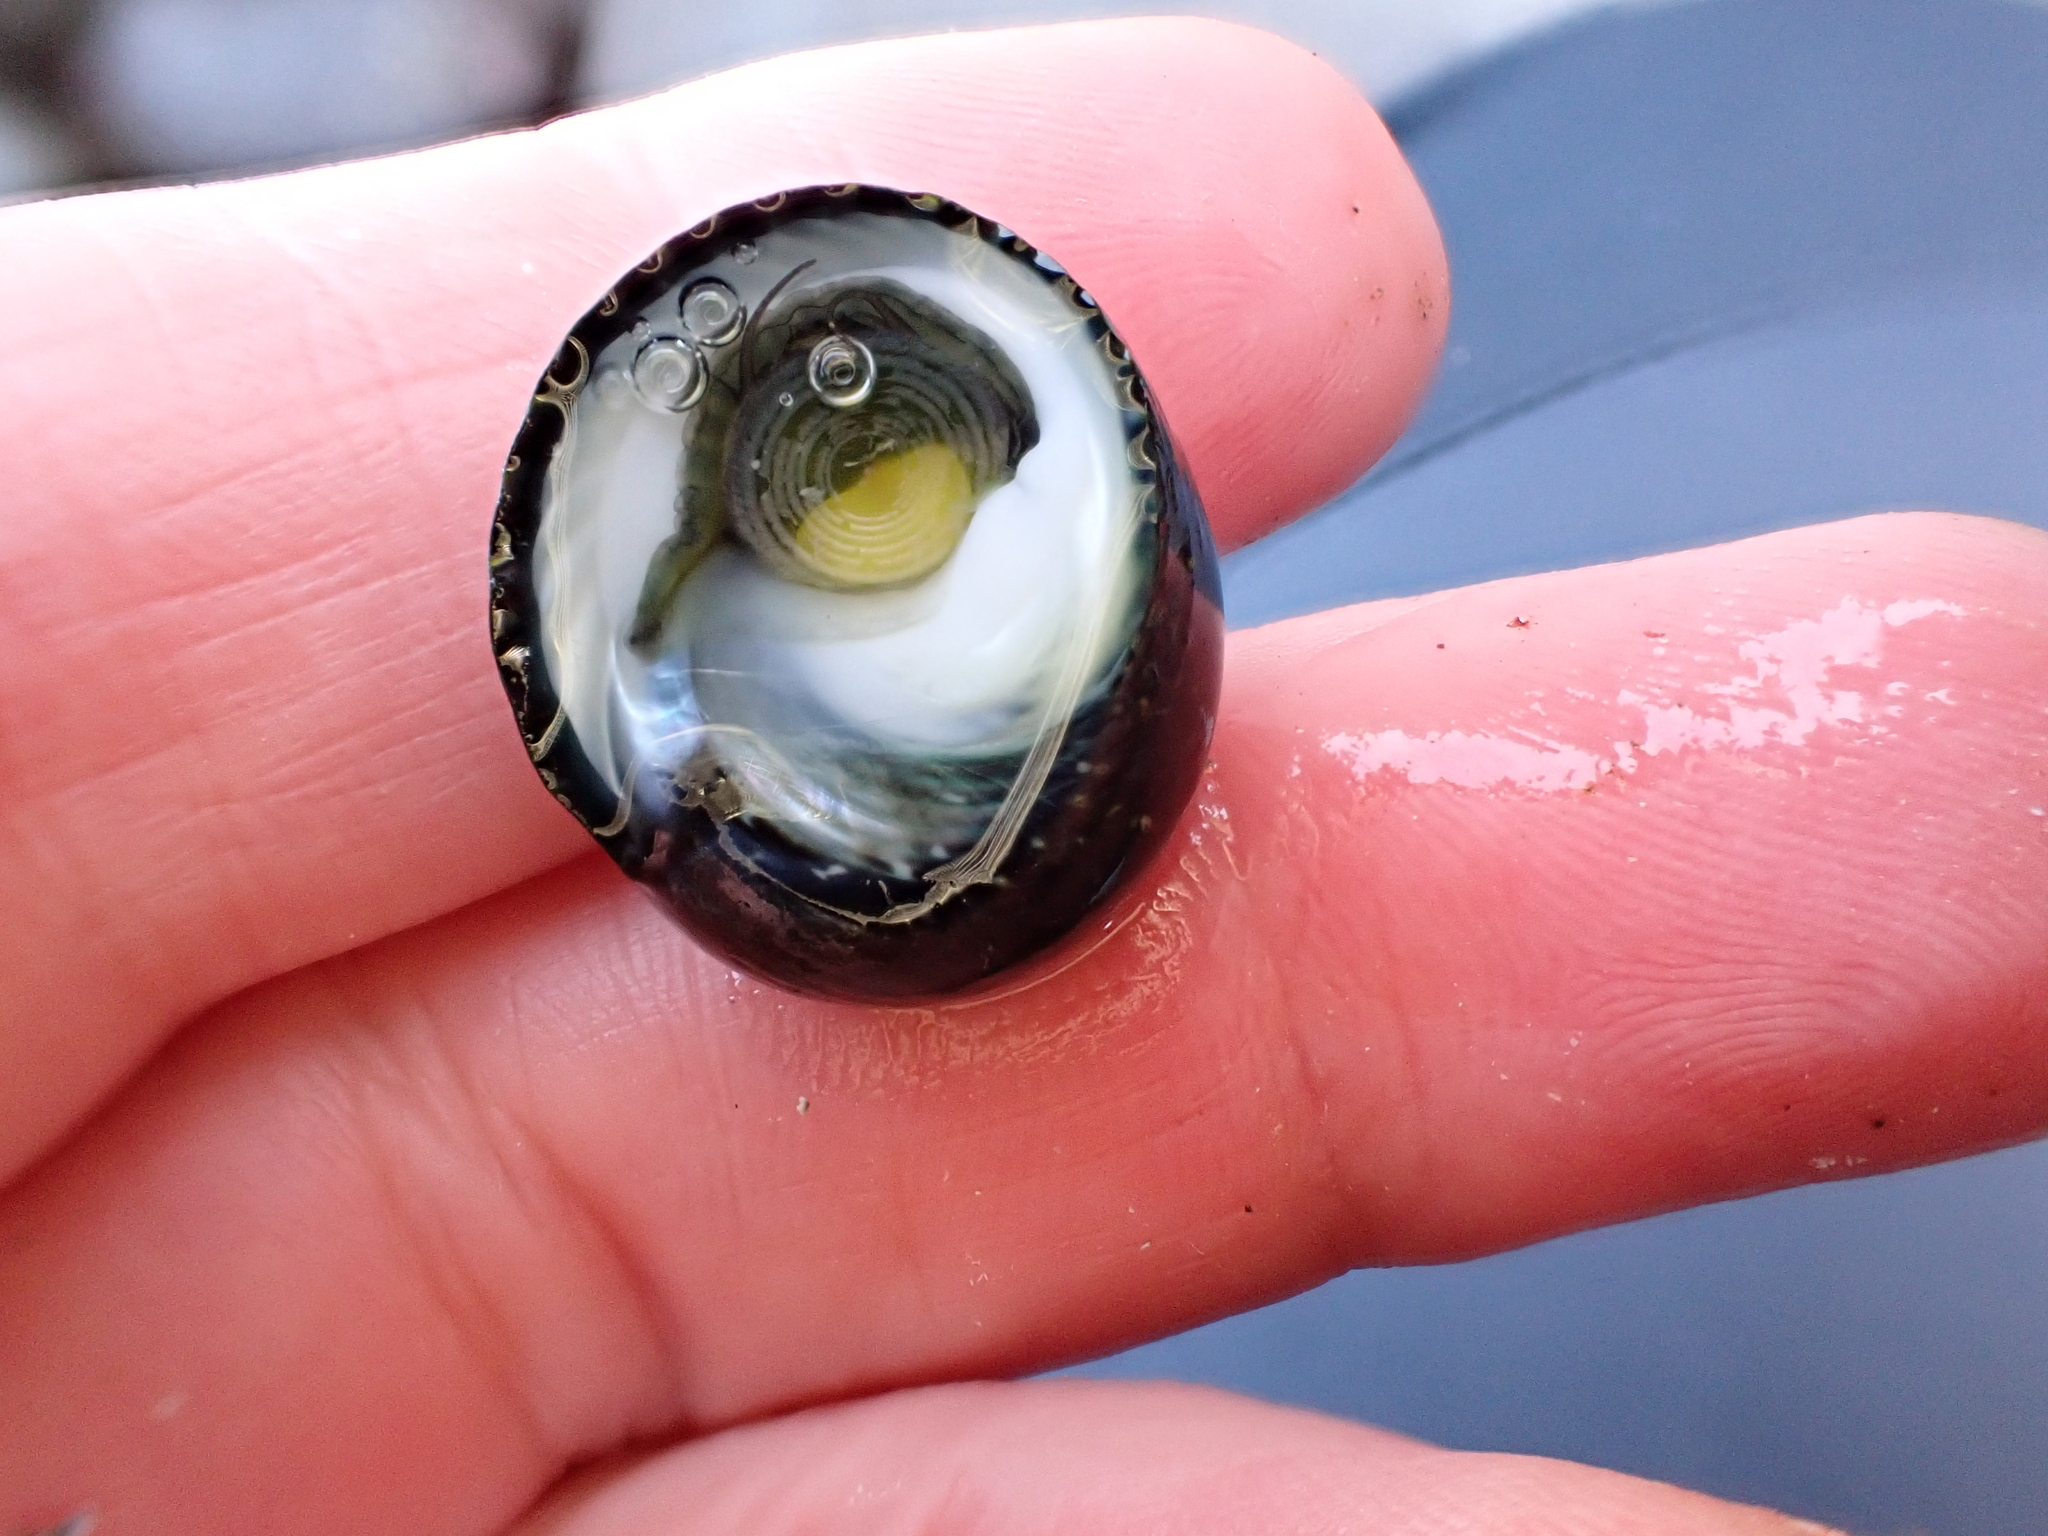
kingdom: Animalia
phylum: Mollusca
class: Gastropoda
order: Trochida
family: Trochidae
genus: Diloma
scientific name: Diloma zelandicum
